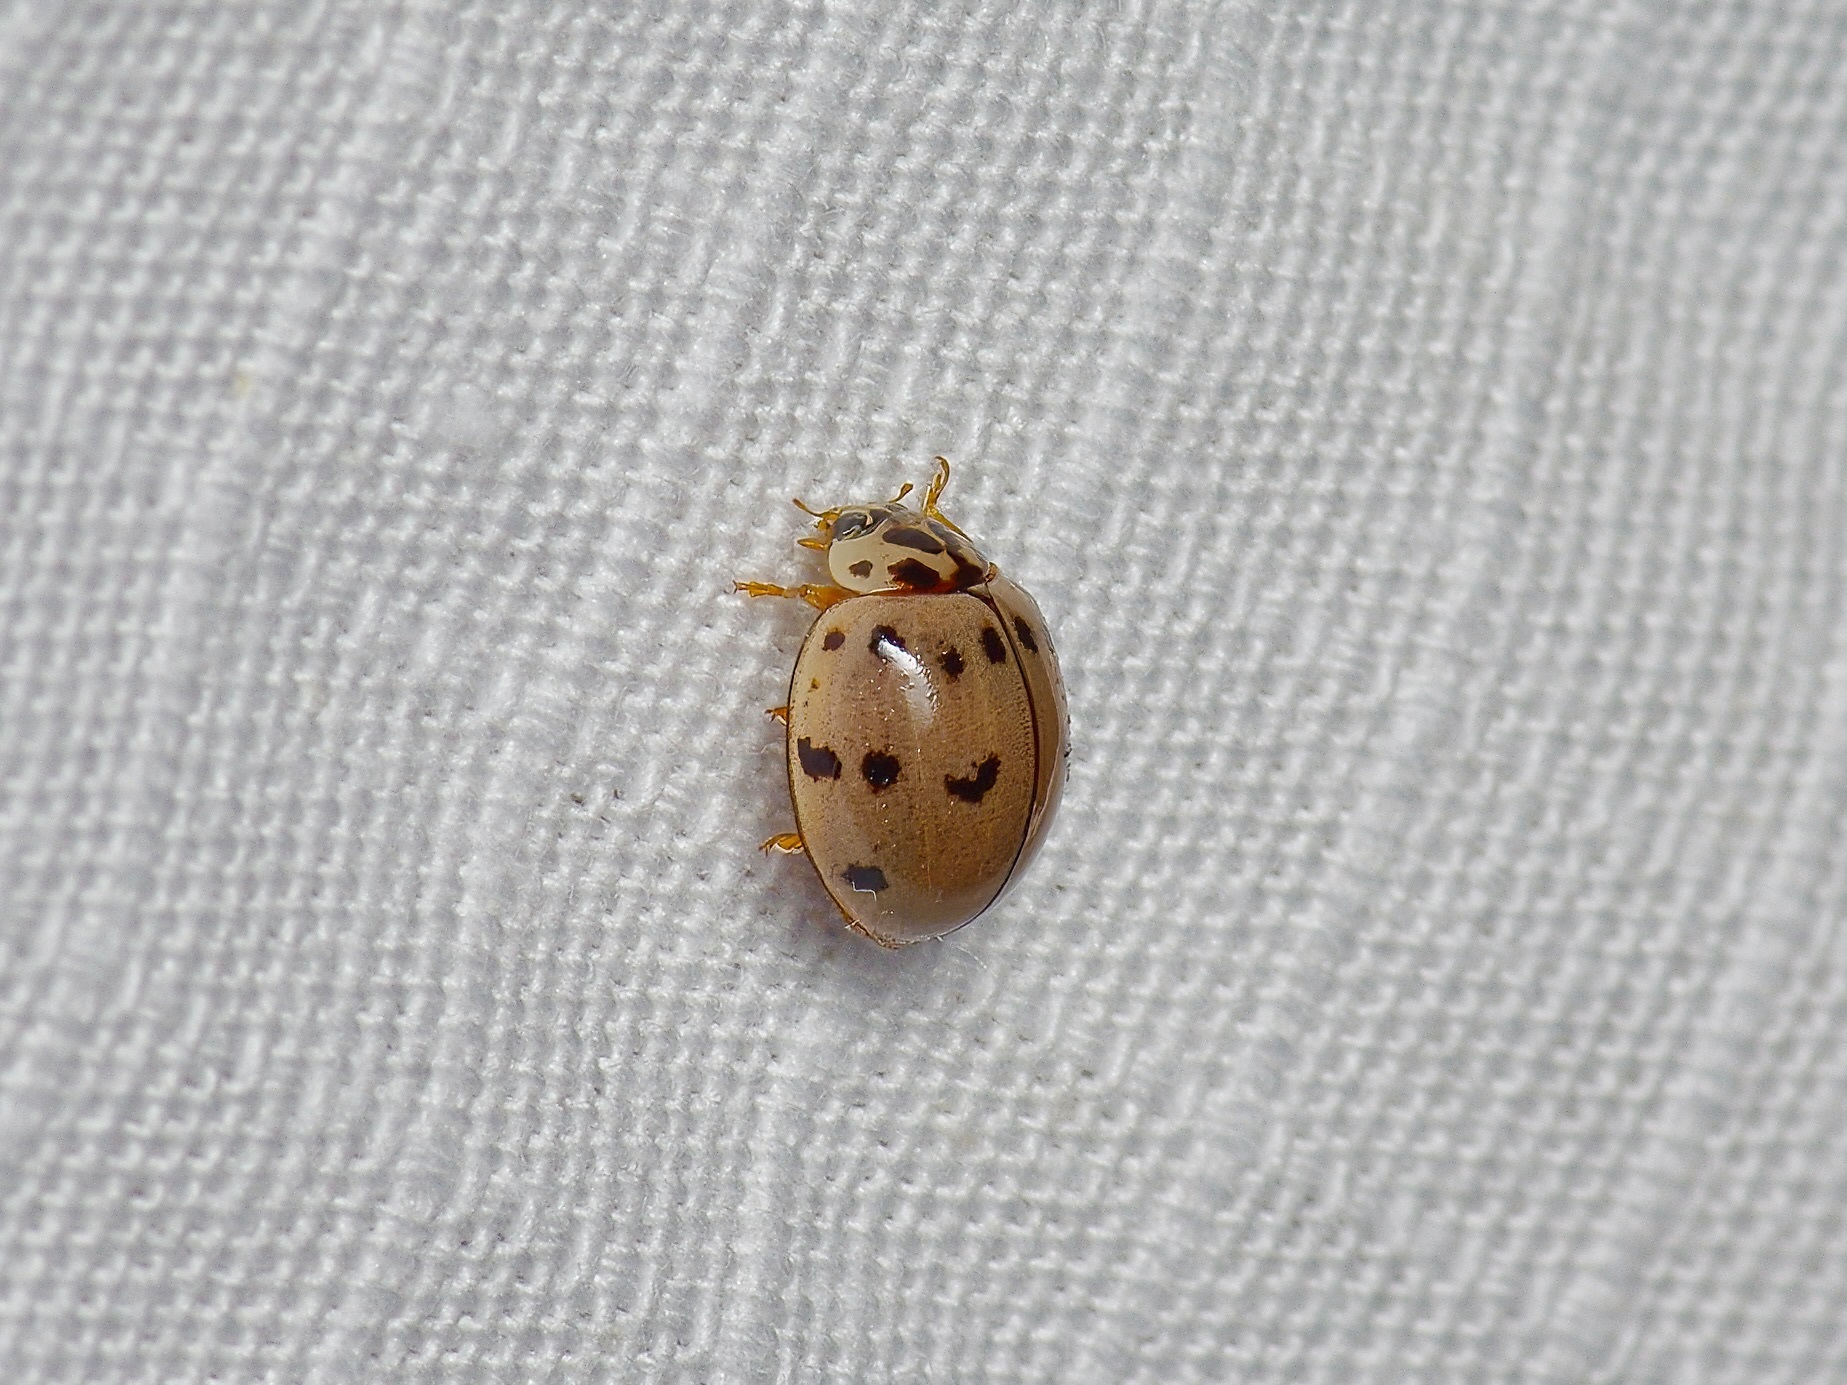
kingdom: Animalia
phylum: Arthropoda
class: Insecta
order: Coleoptera
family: Coccinellidae
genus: Olla
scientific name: Olla v-nigrum
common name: Ashy gray lady beetle
